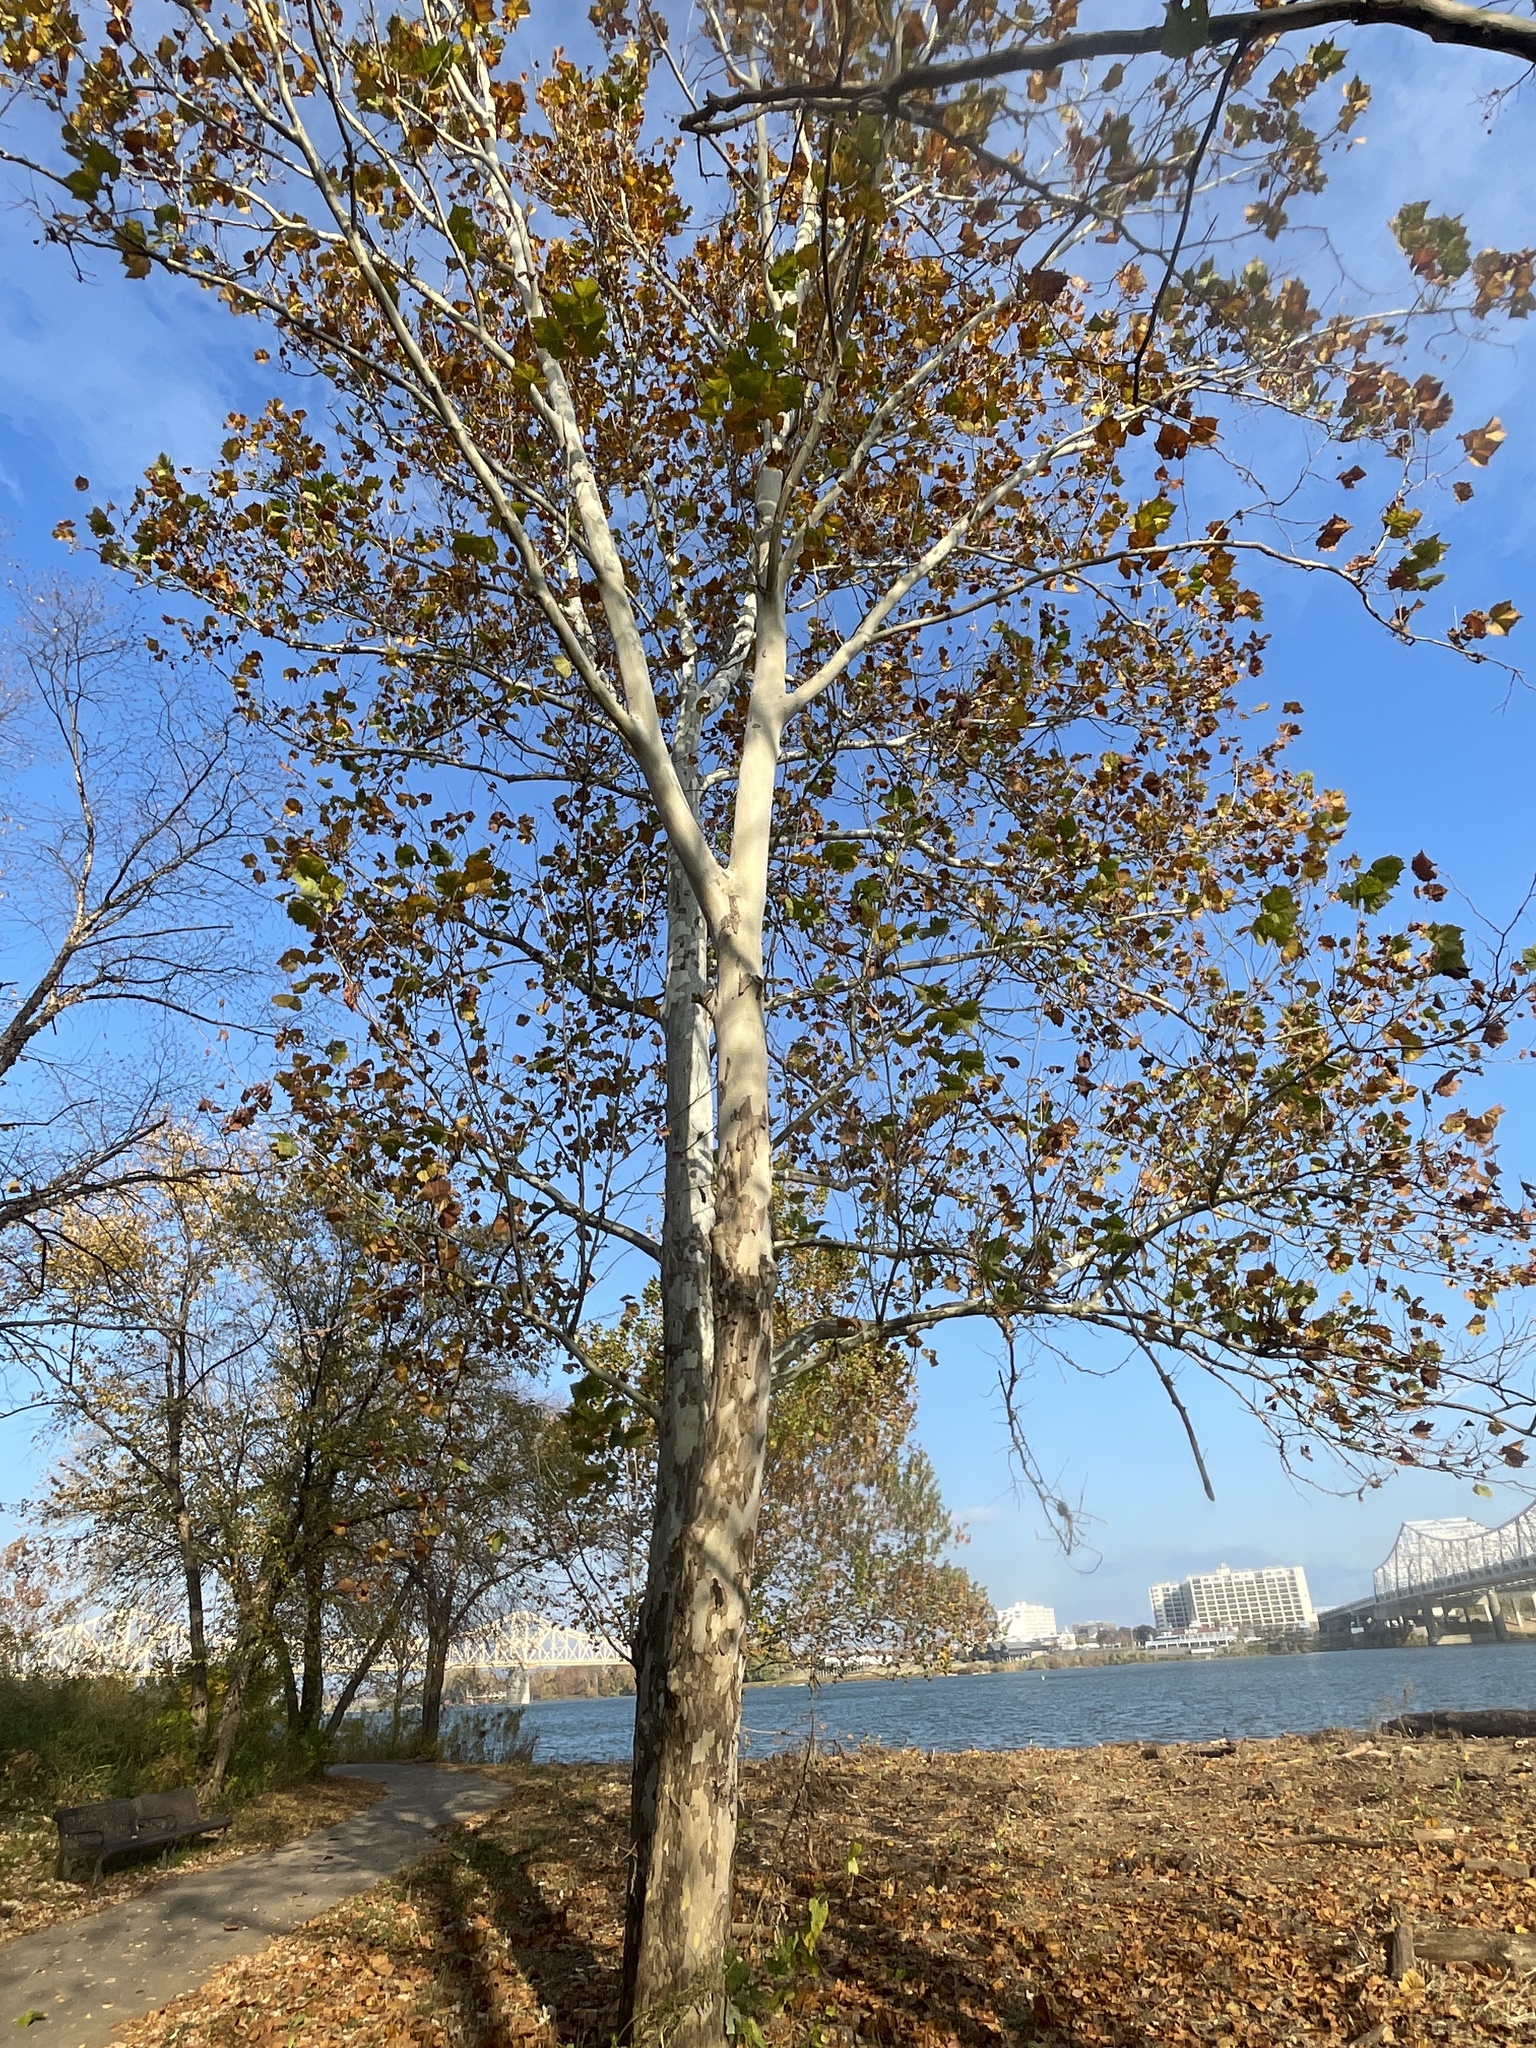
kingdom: Plantae
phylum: Tracheophyta
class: Magnoliopsida
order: Proteales
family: Platanaceae
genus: Platanus
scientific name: Platanus occidentalis
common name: American sycamore
